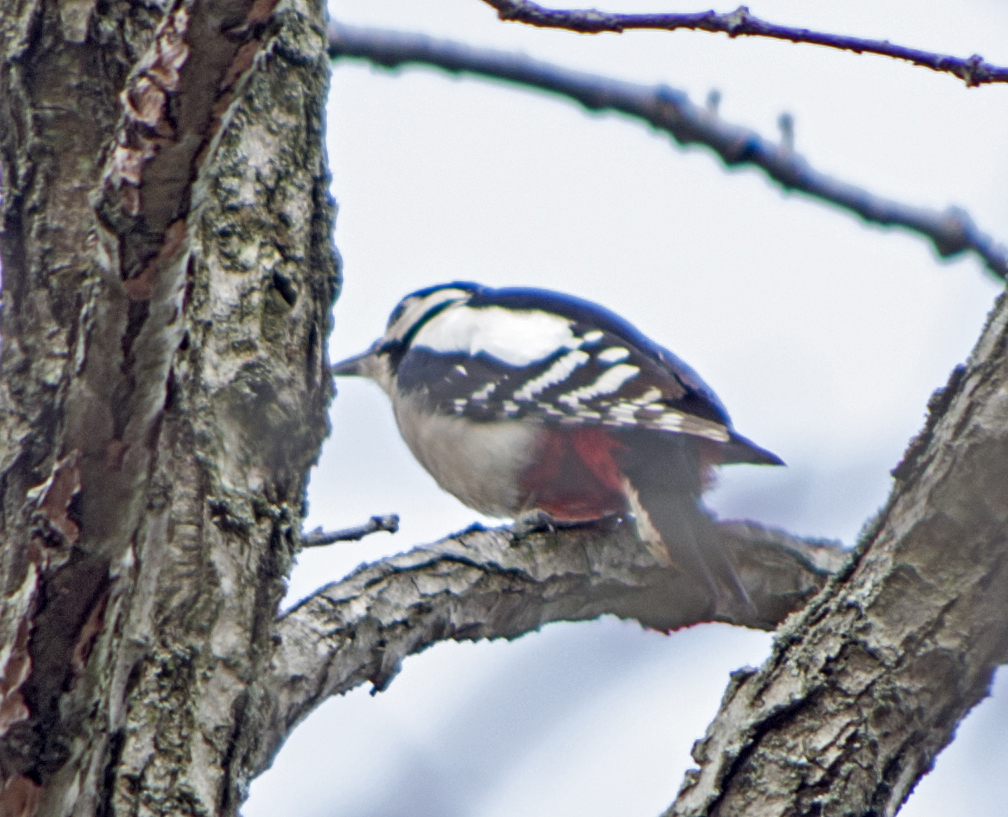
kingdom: Animalia
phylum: Chordata
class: Aves
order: Piciformes
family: Picidae
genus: Dendrocopos
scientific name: Dendrocopos major
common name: Great spotted woodpecker
